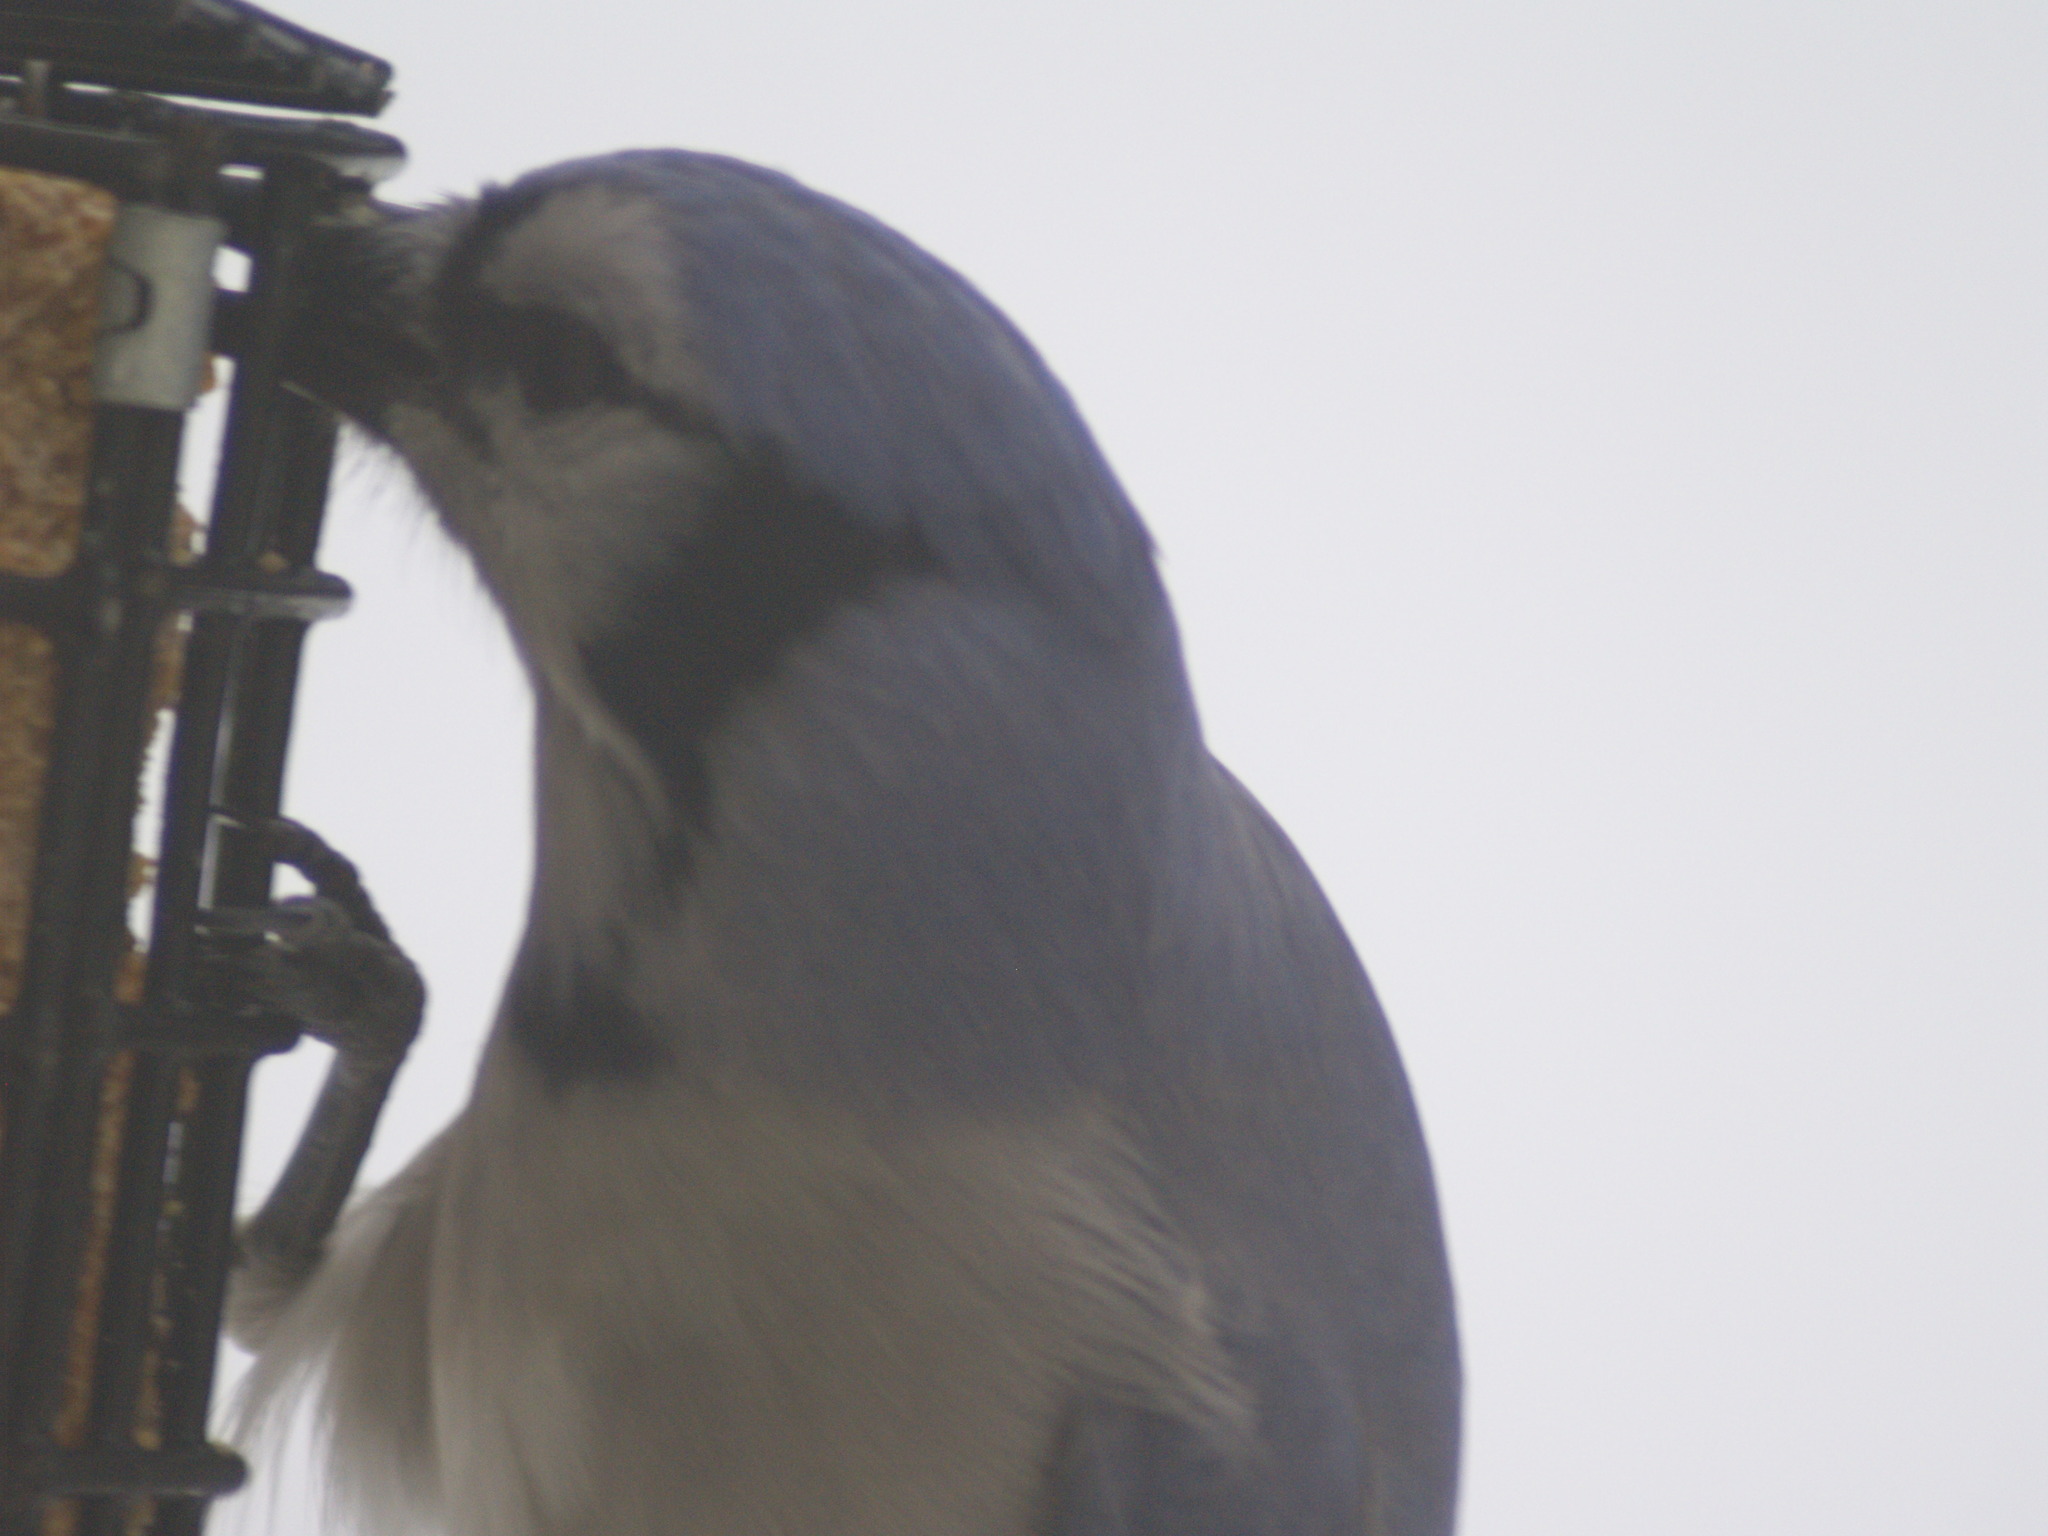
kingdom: Animalia
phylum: Chordata
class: Aves
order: Passeriformes
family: Corvidae
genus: Cyanocitta
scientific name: Cyanocitta cristata
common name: Blue jay
